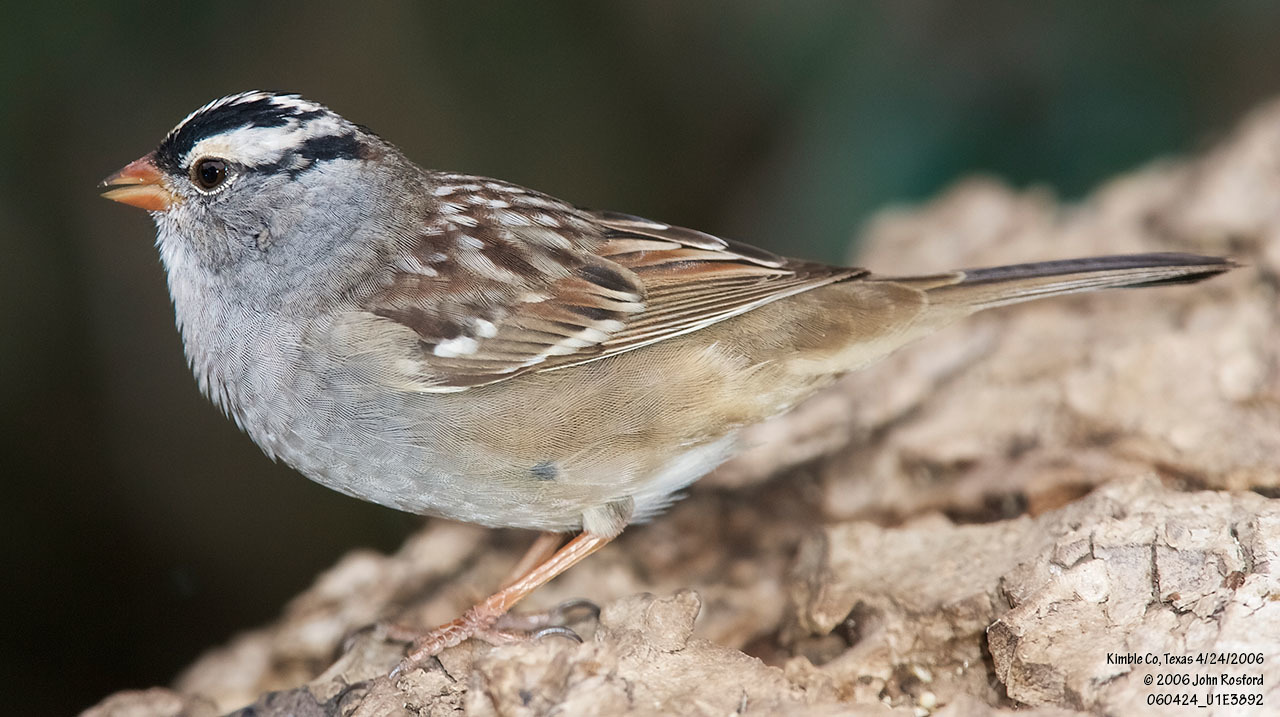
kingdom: Animalia
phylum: Chordata
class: Aves
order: Passeriformes
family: Passerellidae
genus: Zonotrichia
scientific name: Zonotrichia leucophrys
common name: White-crowned sparrow
